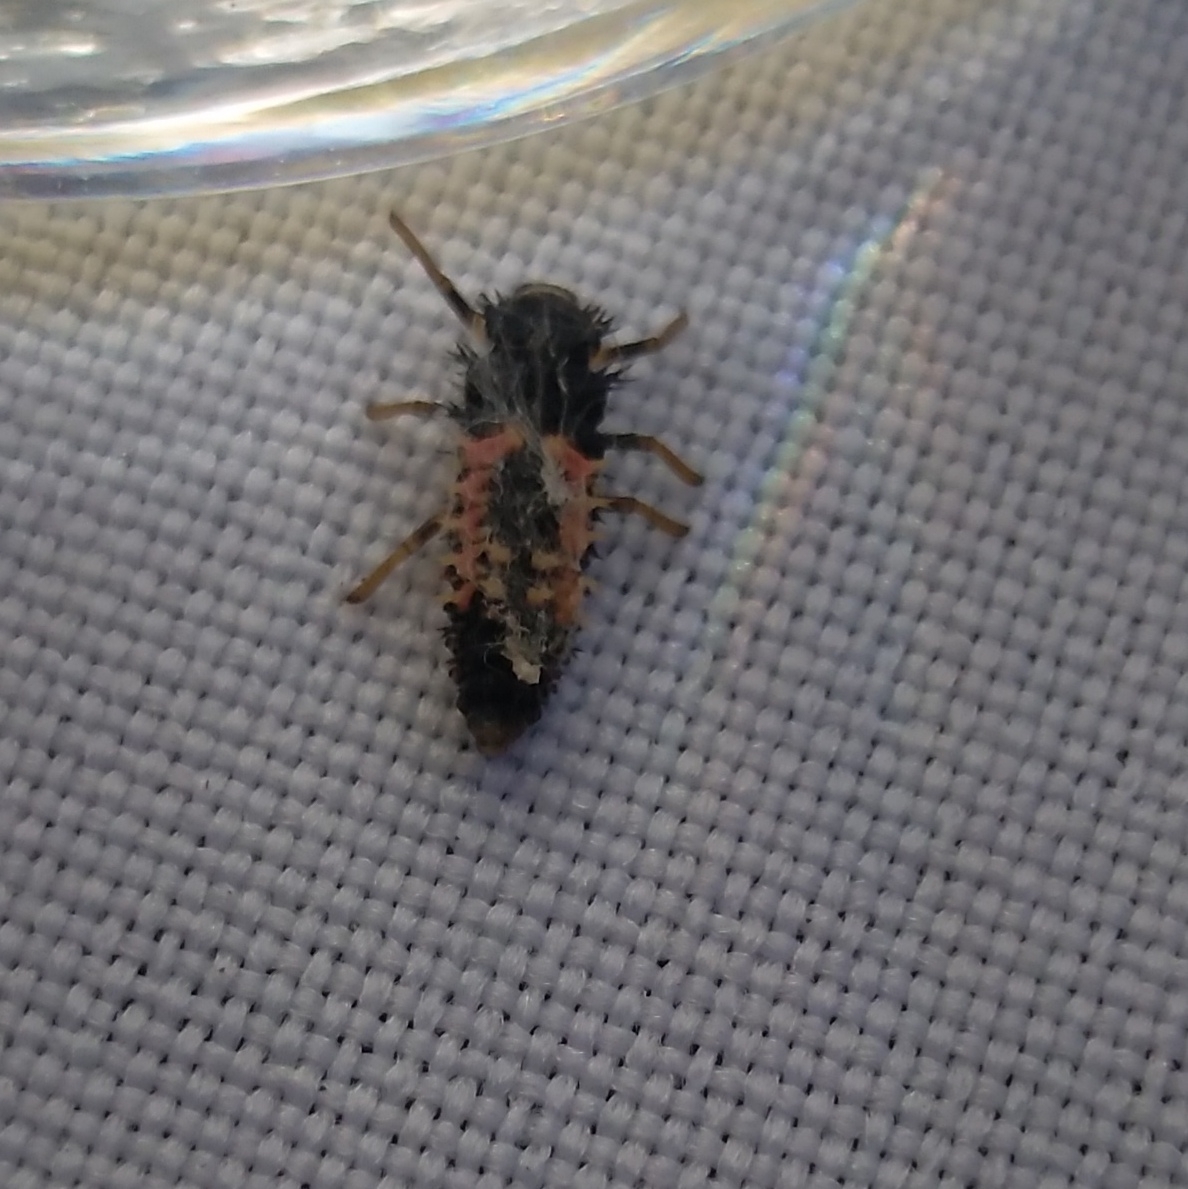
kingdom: Animalia
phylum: Arthropoda
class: Insecta
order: Coleoptera
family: Coccinellidae
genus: Harmonia
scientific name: Harmonia axyridis
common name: Harlequin ladybird
